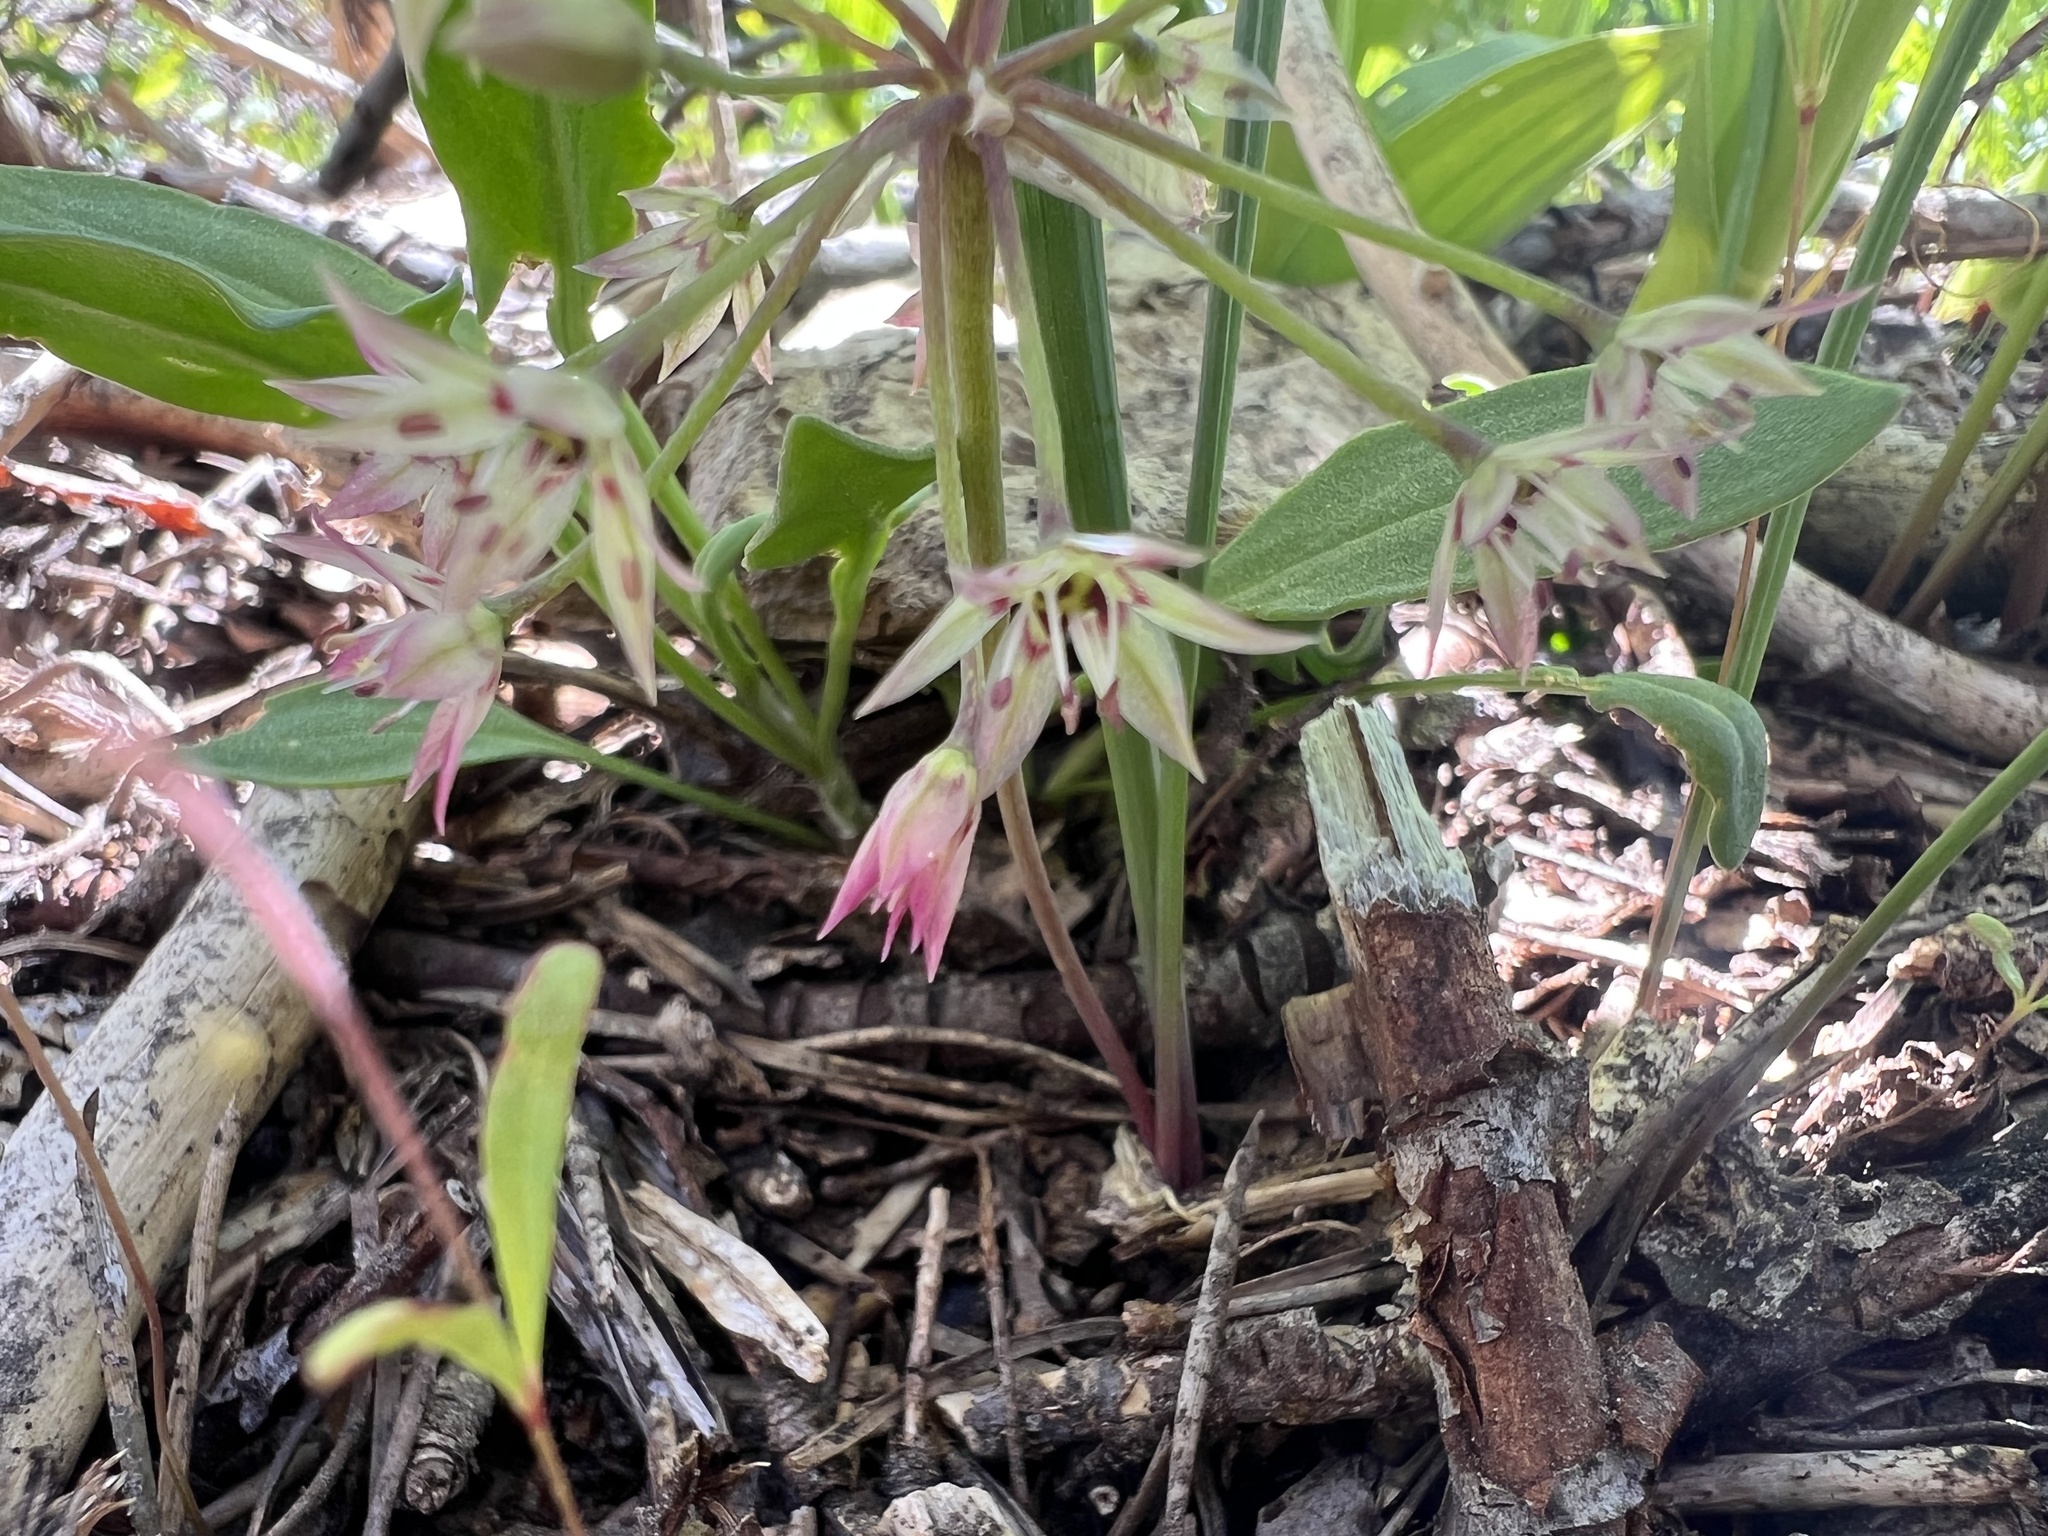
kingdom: Plantae
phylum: Tracheophyta
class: Liliopsida
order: Asparagales
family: Amaryllidaceae
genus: Allium
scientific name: Allium campanulatum
